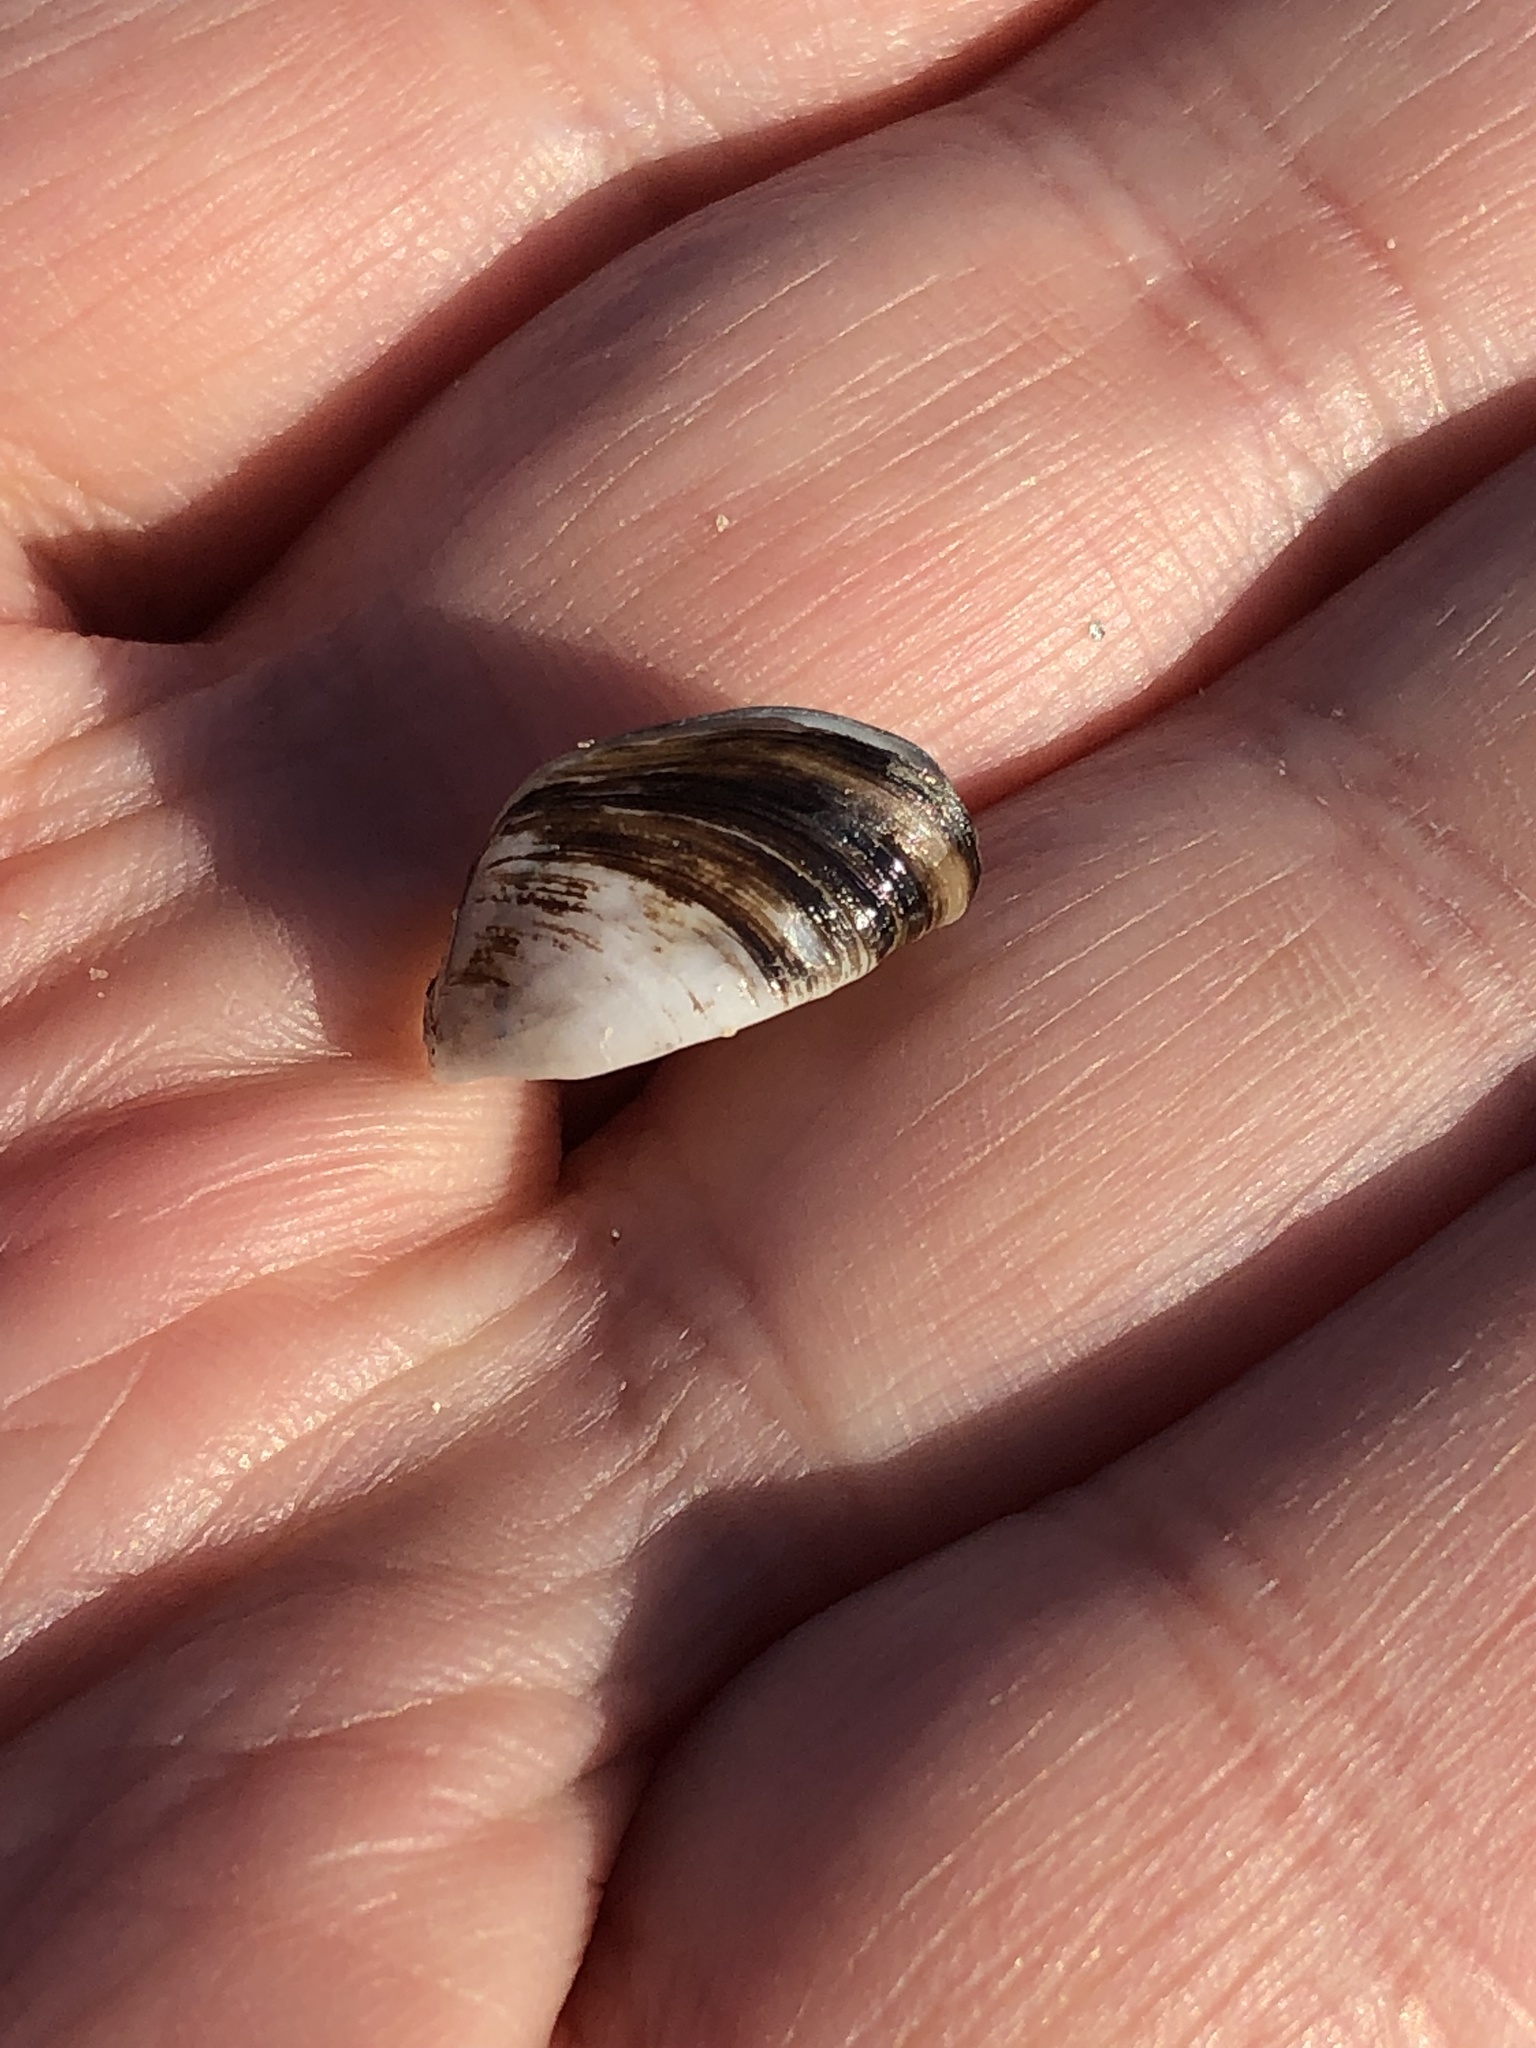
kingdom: Animalia
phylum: Mollusca
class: Bivalvia
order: Myida
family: Dreissenidae
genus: Dreissena
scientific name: Dreissena polymorpha
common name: Zebra mussel
